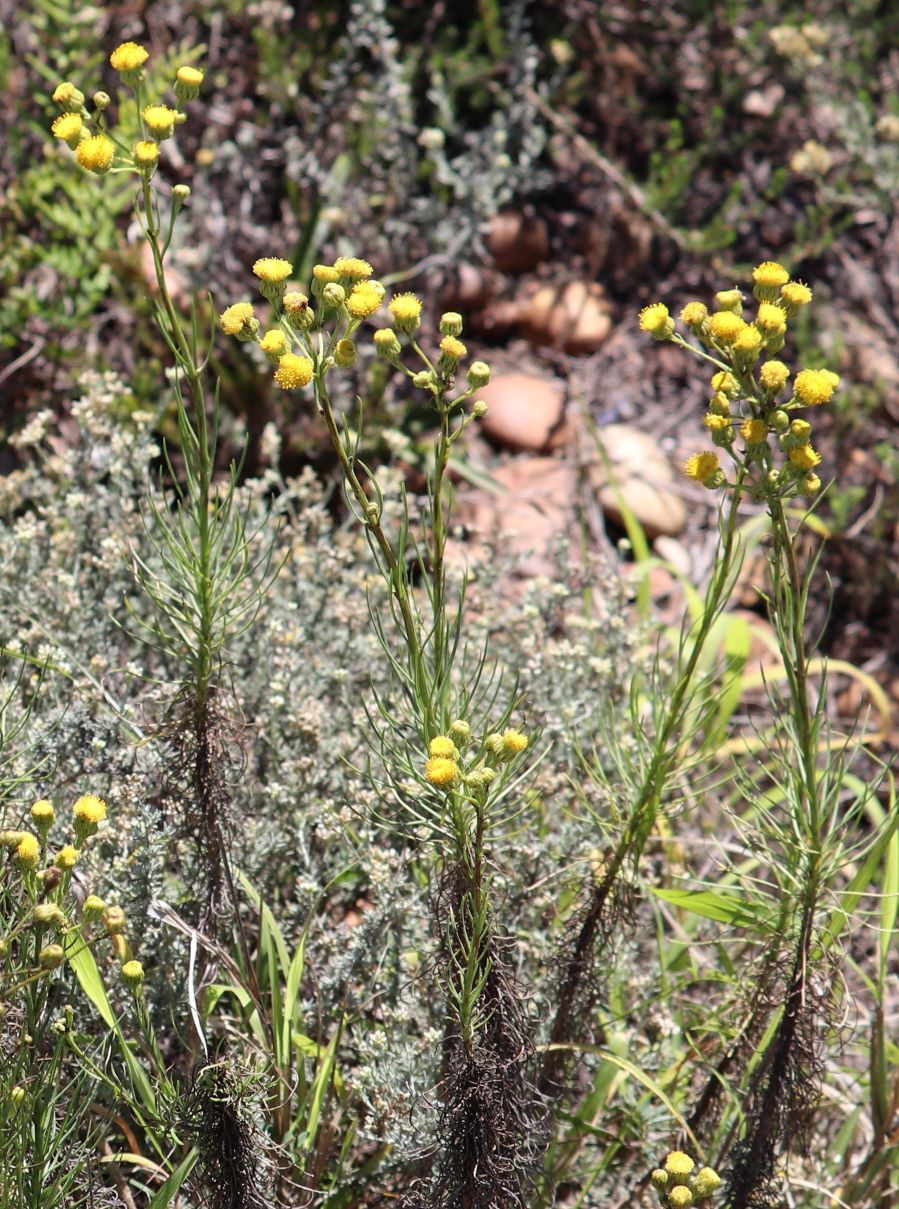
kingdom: Plantae
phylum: Tracheophyta
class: Magnoliopsida
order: Asterales
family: Asteraceae
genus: Senecio
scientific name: Senecio chrysocoma
